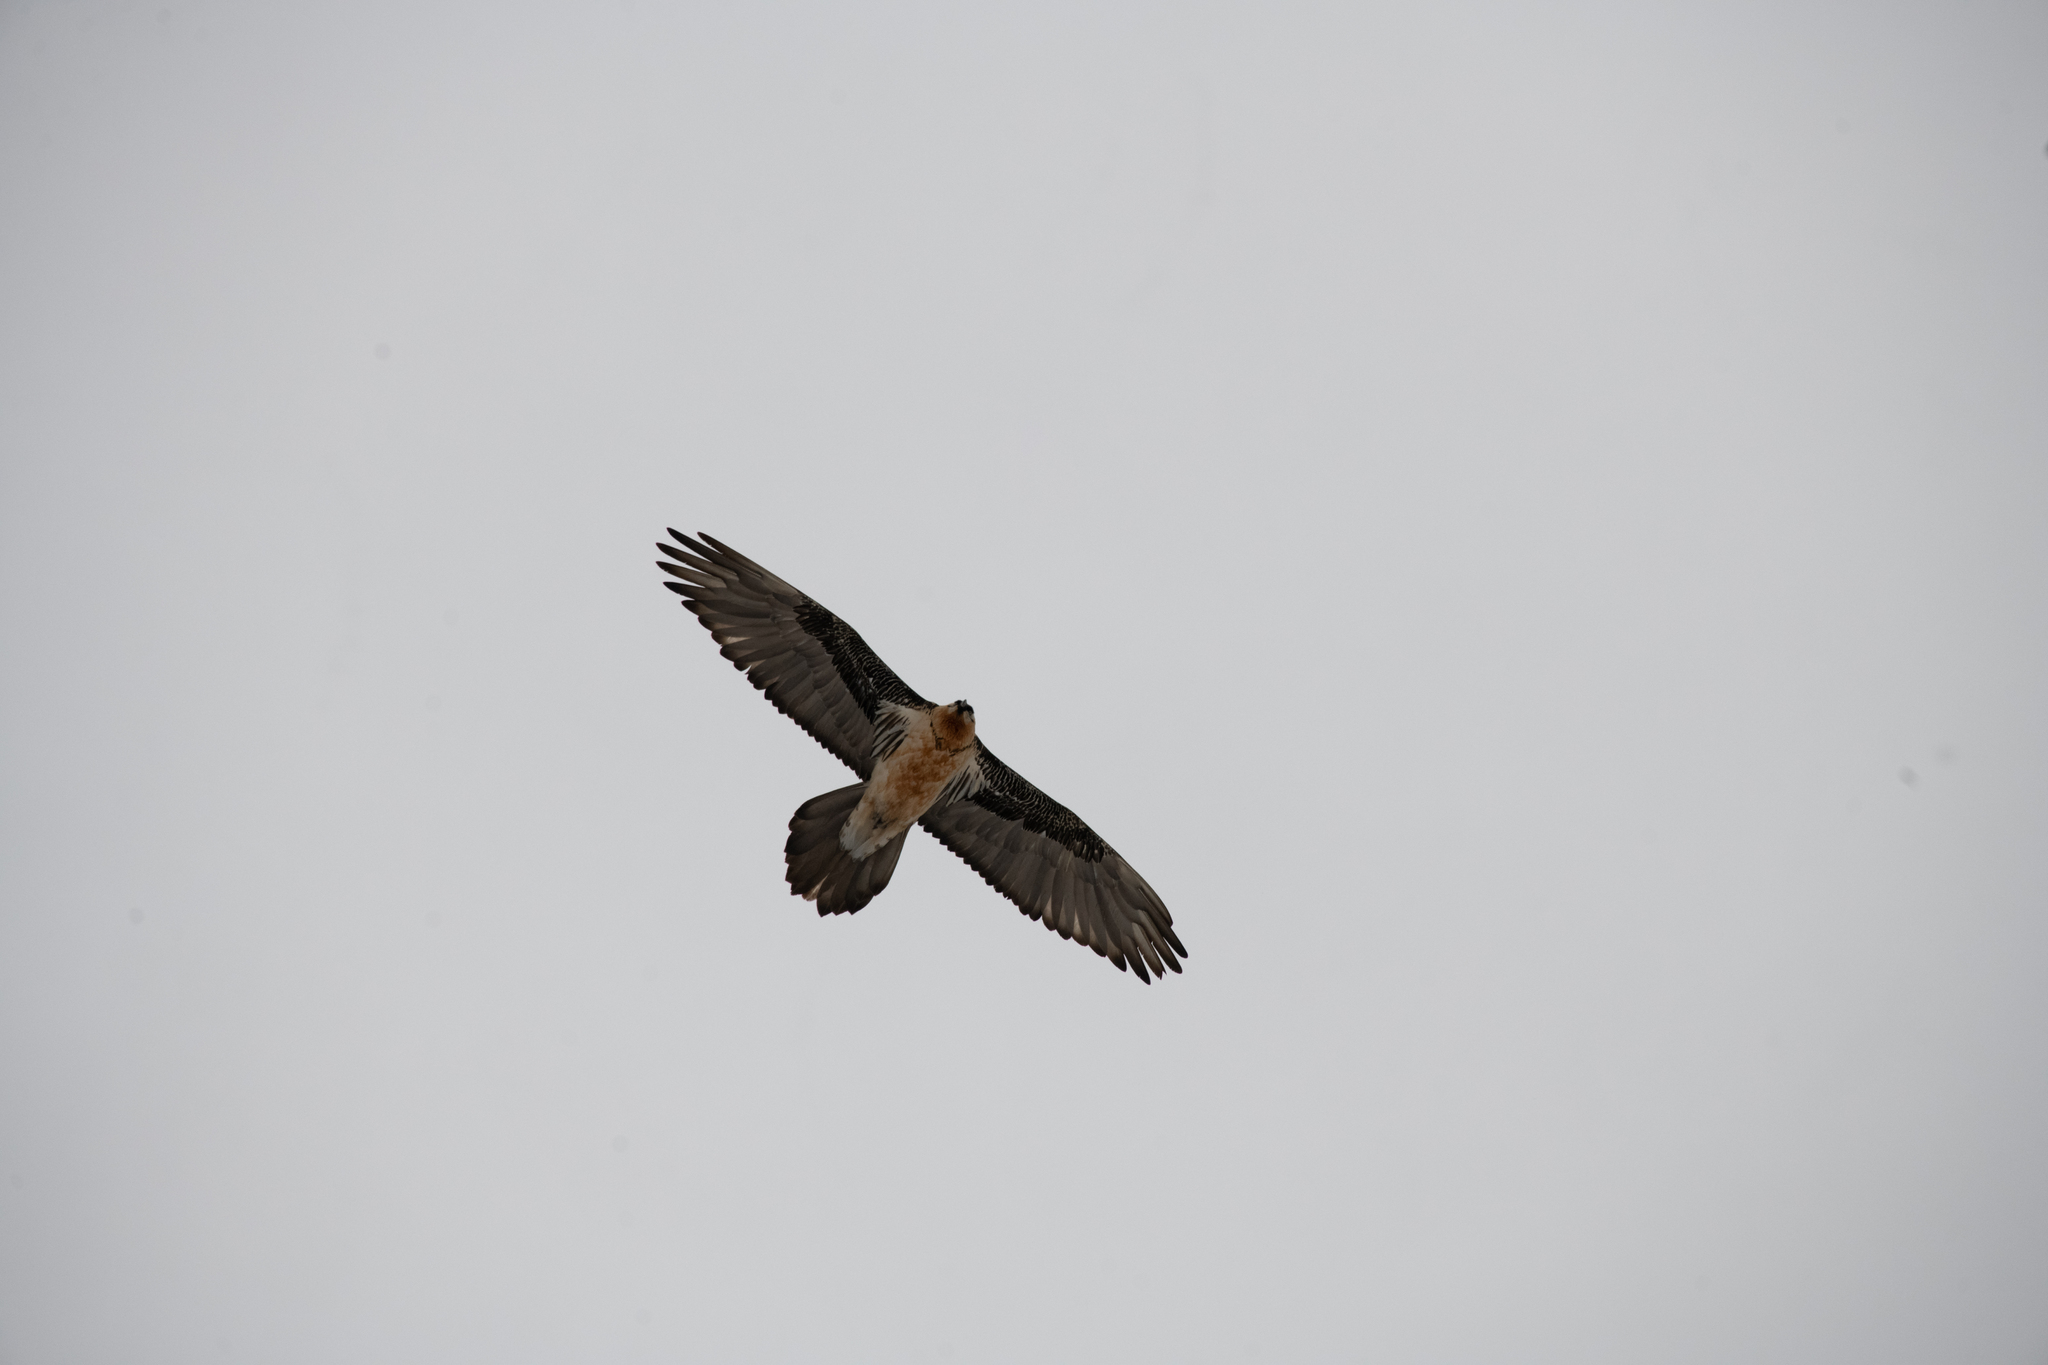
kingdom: Animalia
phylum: Chordata
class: Aves
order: Accipitriformes
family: Accipitridae
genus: Gypaetus
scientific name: Gypaetus barbatus
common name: Bearded vulture
